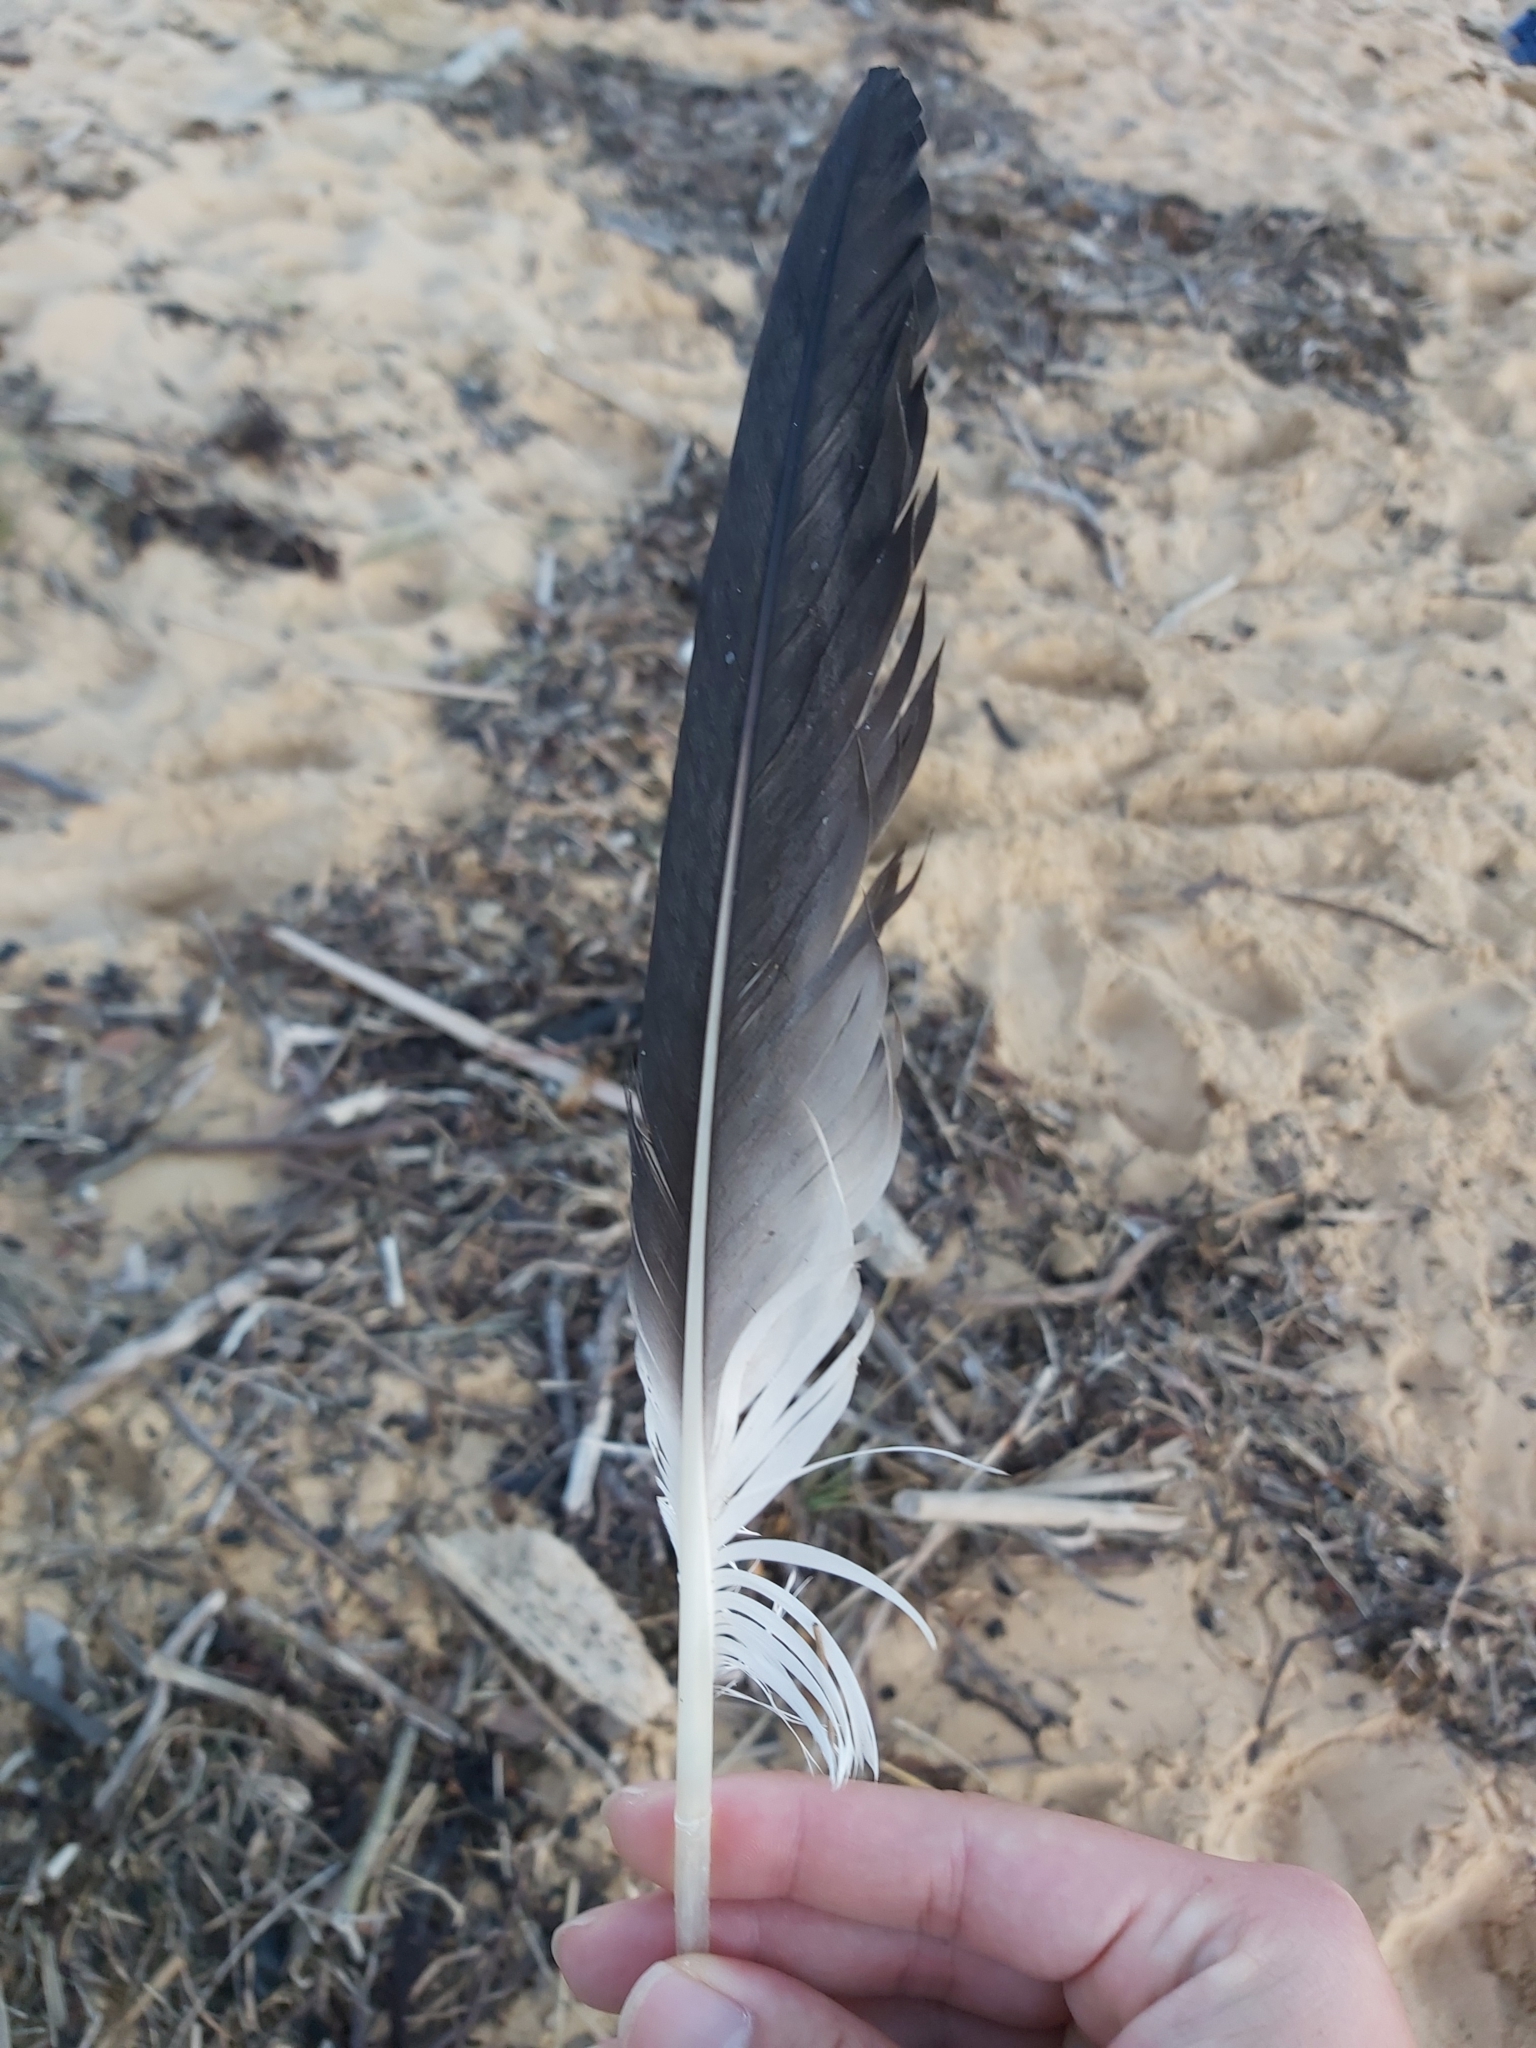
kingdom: Animalia
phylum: Chordata
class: Aves
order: Suliformes
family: Sulidae
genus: Morus
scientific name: Morus serrator
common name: Australasian gannet
